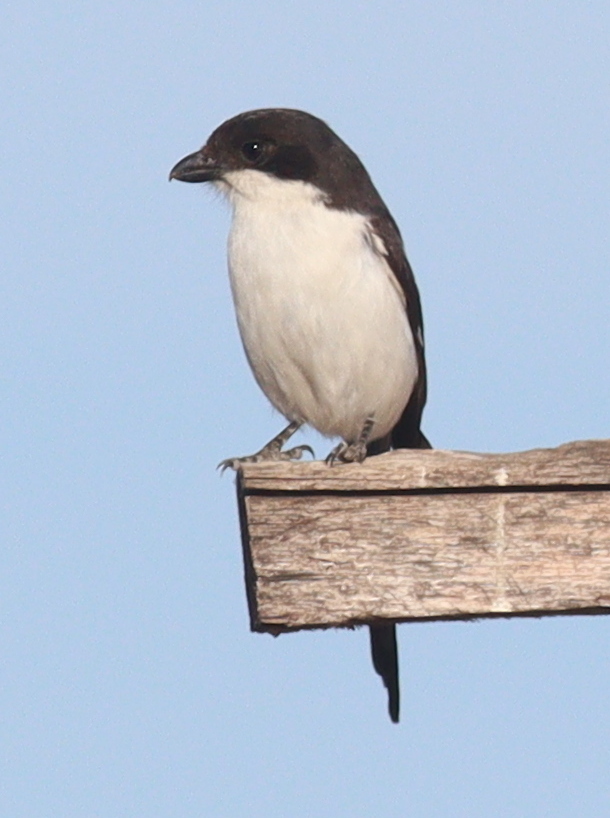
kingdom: Animalia
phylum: Chordata
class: Aves
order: Passeriformes
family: Laniidae
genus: Lanius
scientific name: Lanius humeralis
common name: Northern fiscal
